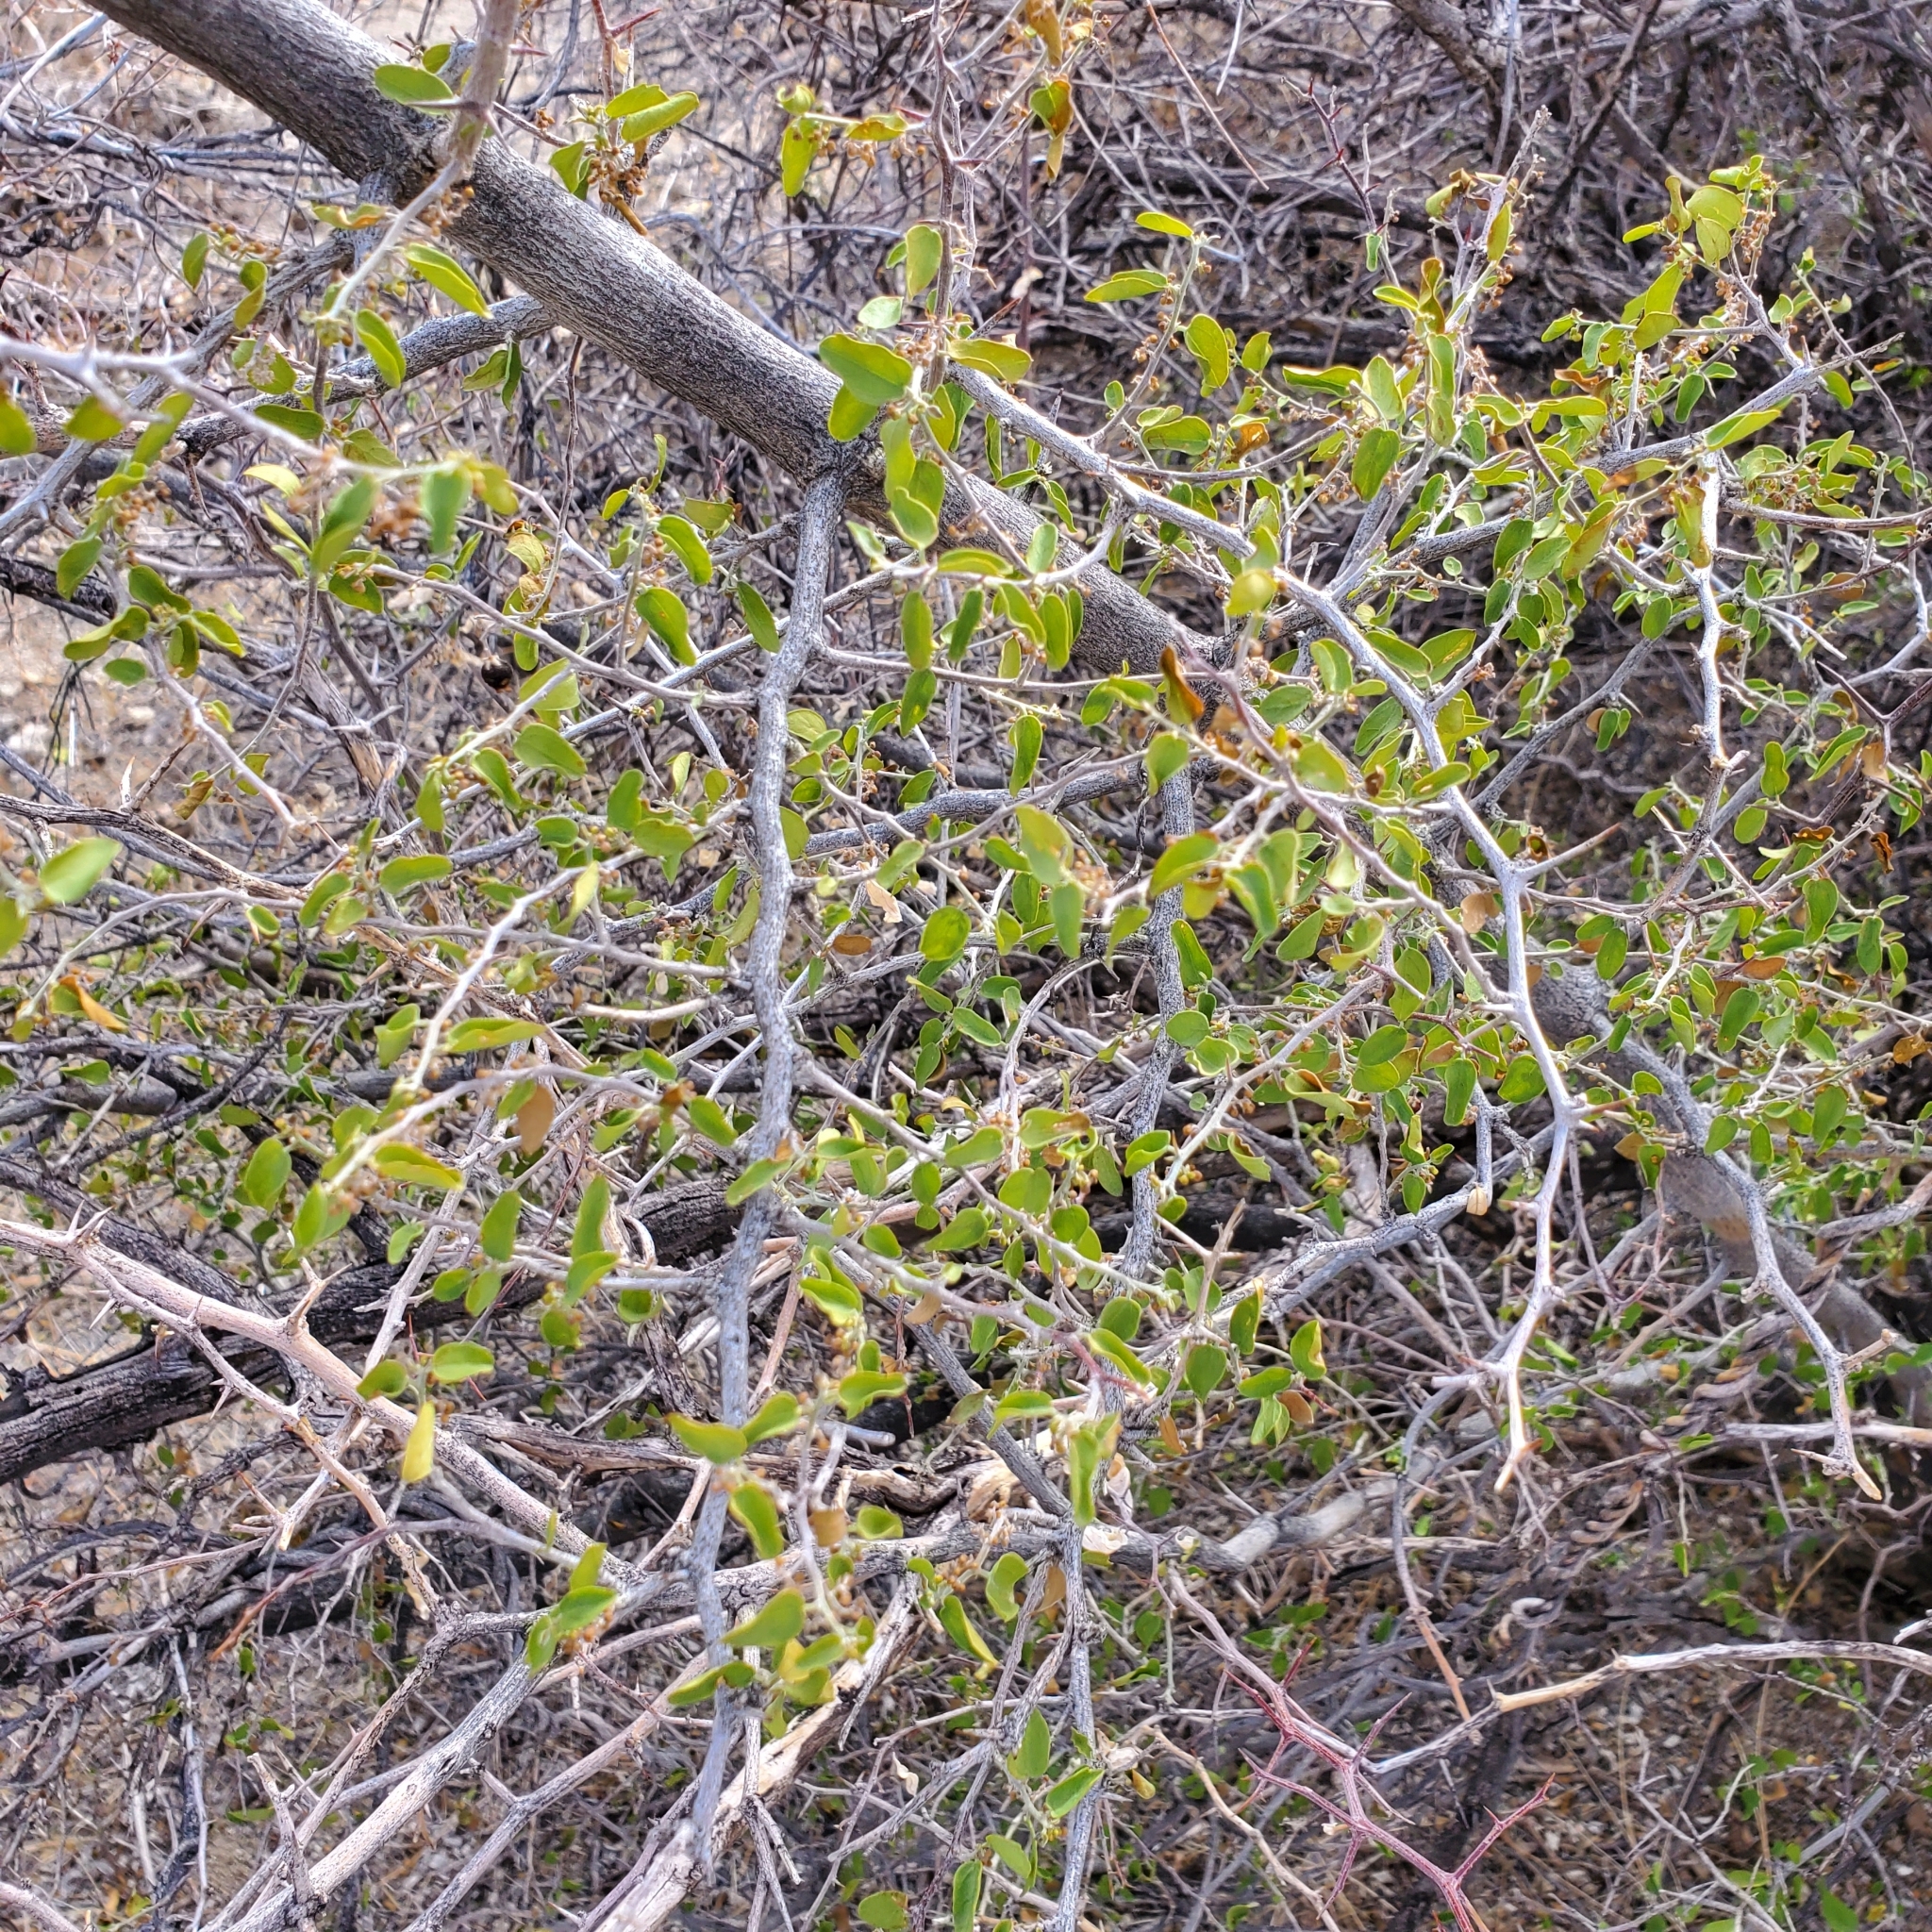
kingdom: Plantae
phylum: Tracheophyta
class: Magnoliopsida
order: Rosales
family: Cannabaceae
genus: Celtis
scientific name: Celtis pallida
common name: Desert hackberry
